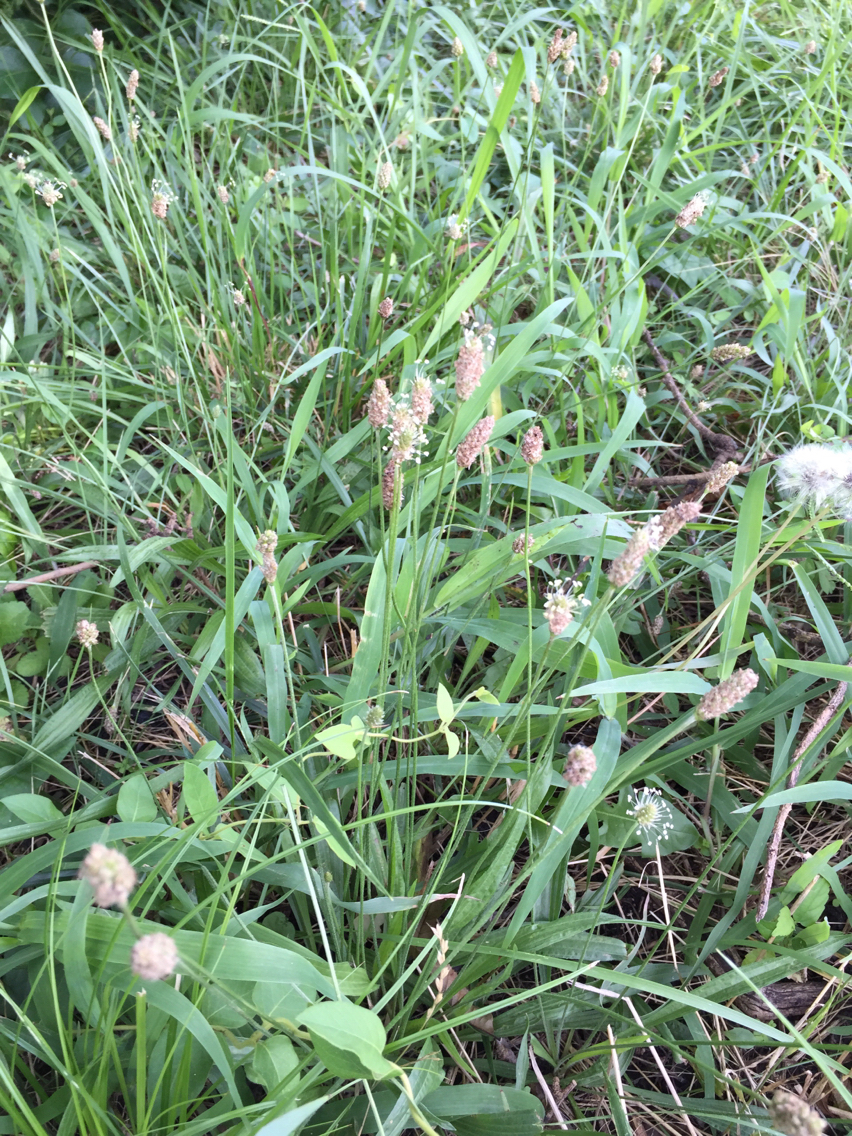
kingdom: Plantae
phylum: Tracheophyta
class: Magnoliopsida
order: Lamiales
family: Plantaginaceae
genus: Plantago
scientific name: Plantago lanceolata
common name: Ribwort plantain
